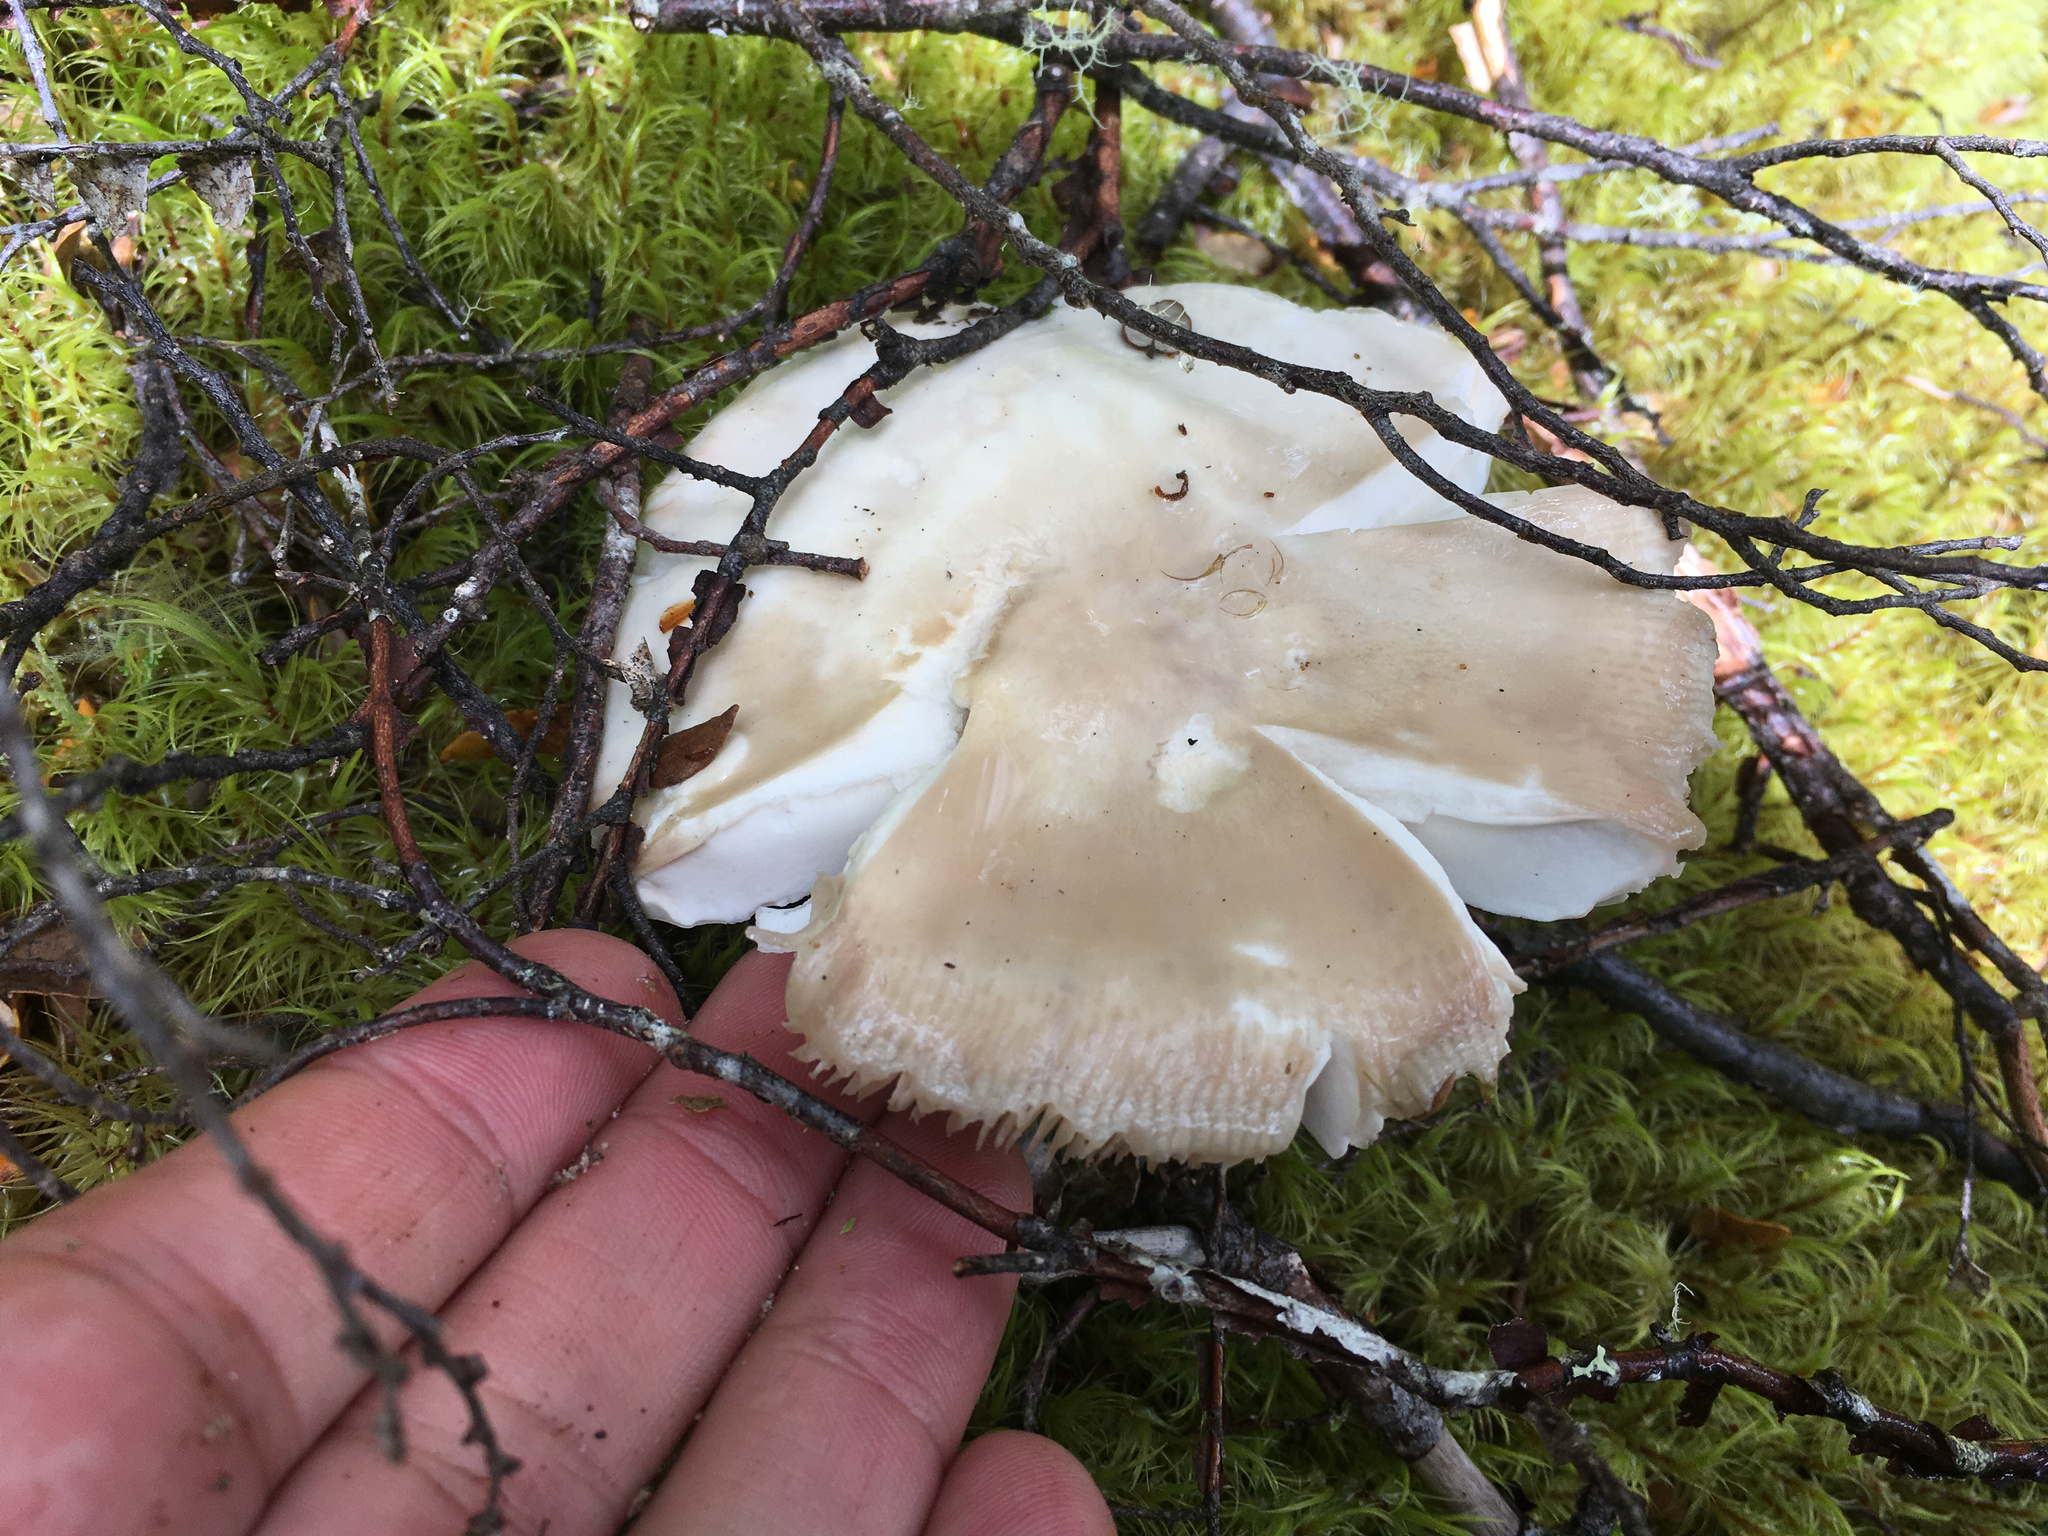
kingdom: Fungi
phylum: Basidiomycota
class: Agaricomycetes
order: Russulales
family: Russulaceae
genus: Russula
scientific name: Russula purpureotincta
